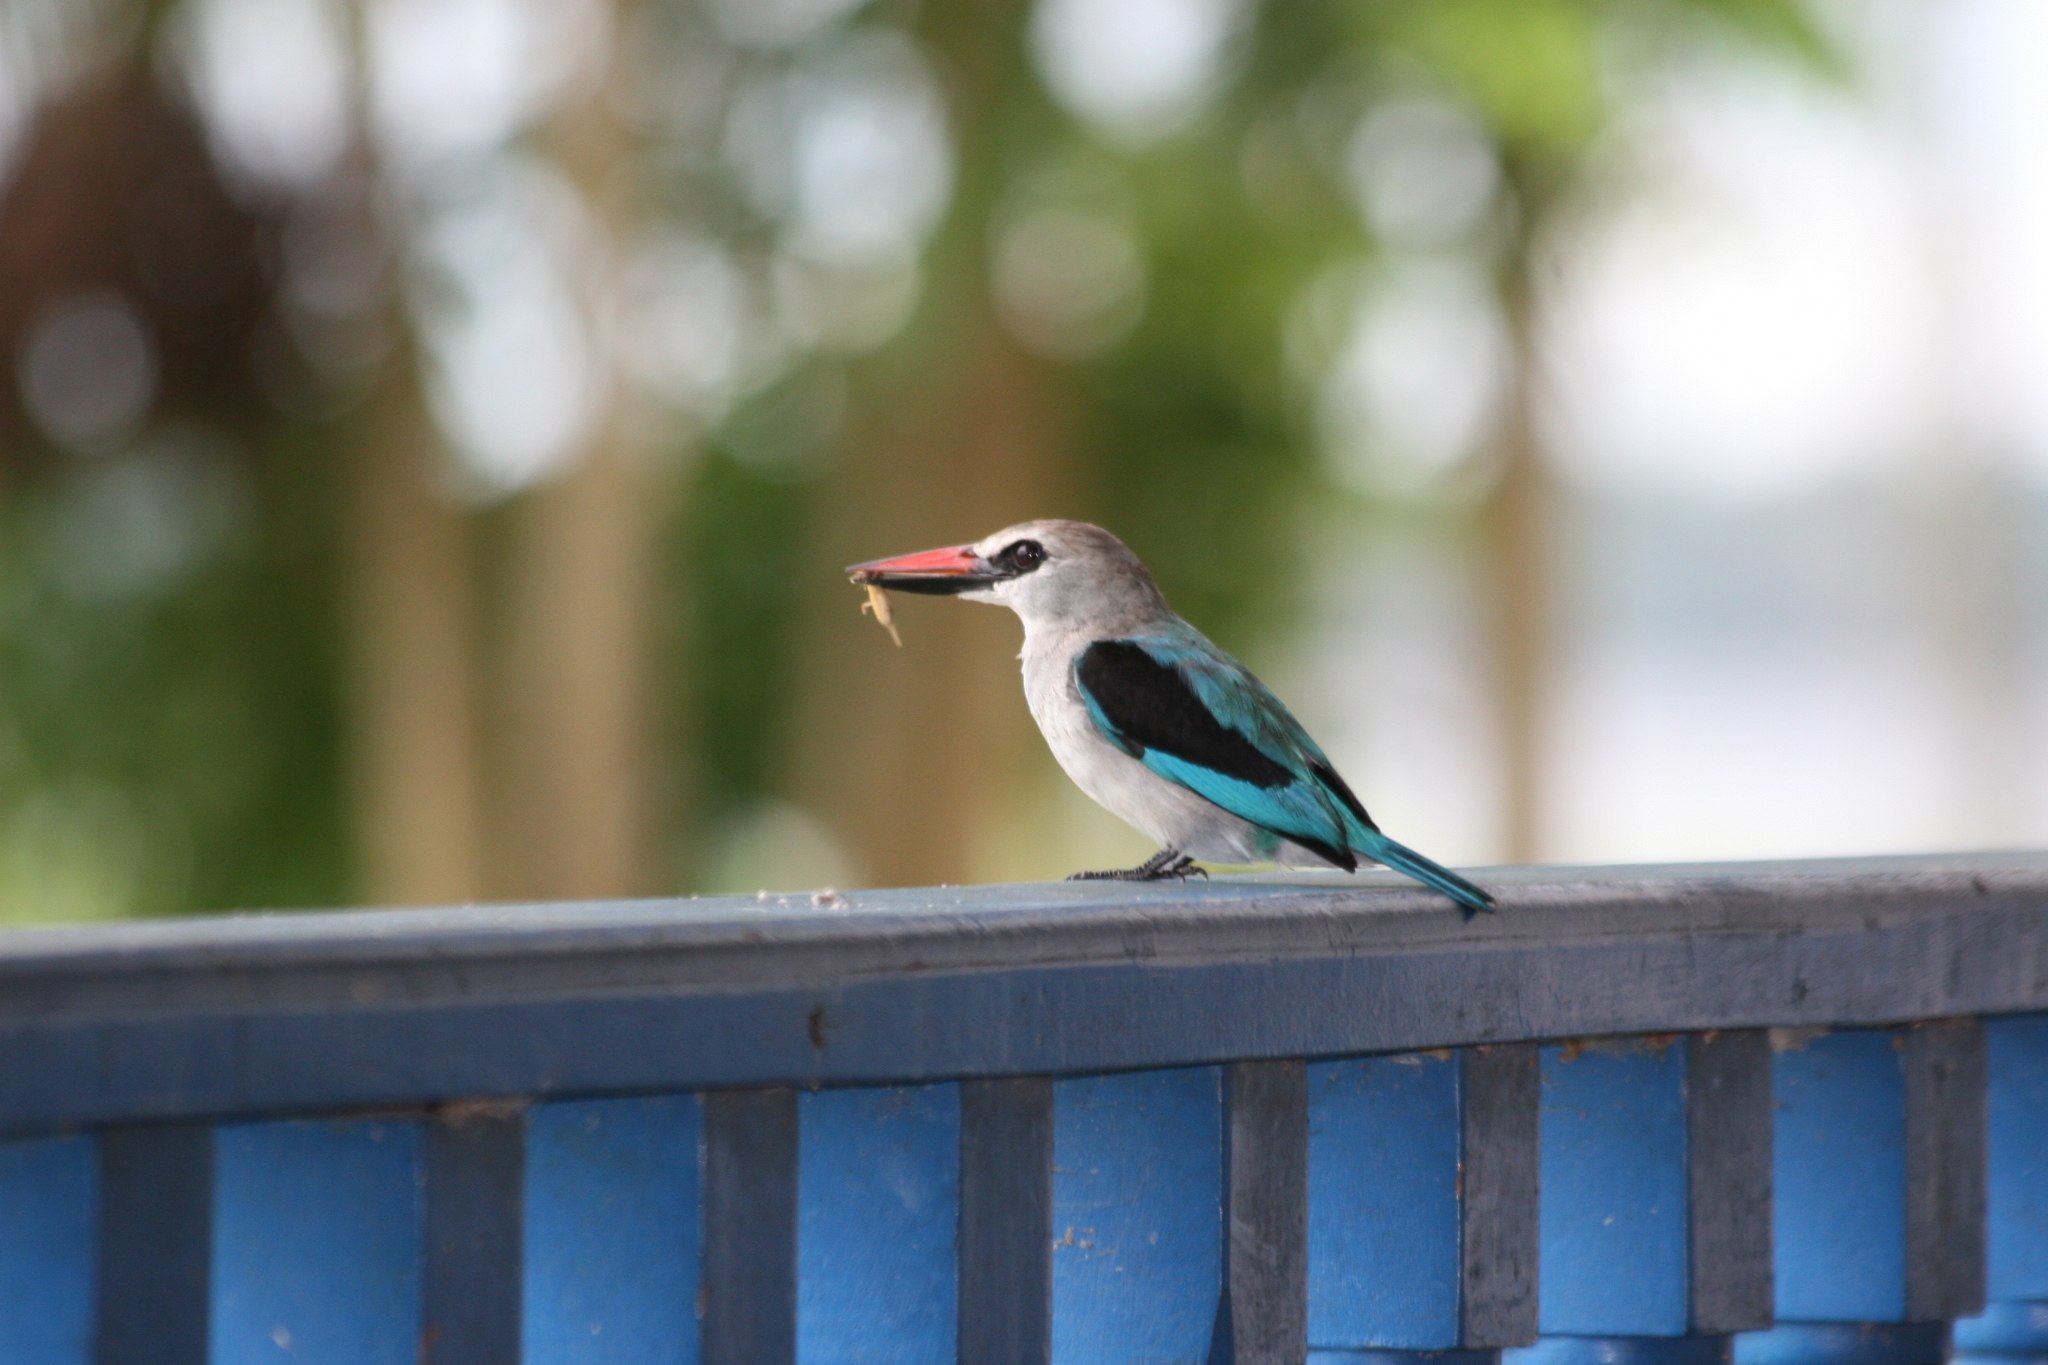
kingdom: Animalia
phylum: Chordata
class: Aves
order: Coraciiformes
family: Alcedinidae
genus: Halcyon
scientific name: Halcyon senegalensis
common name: Woodland kingfisher
